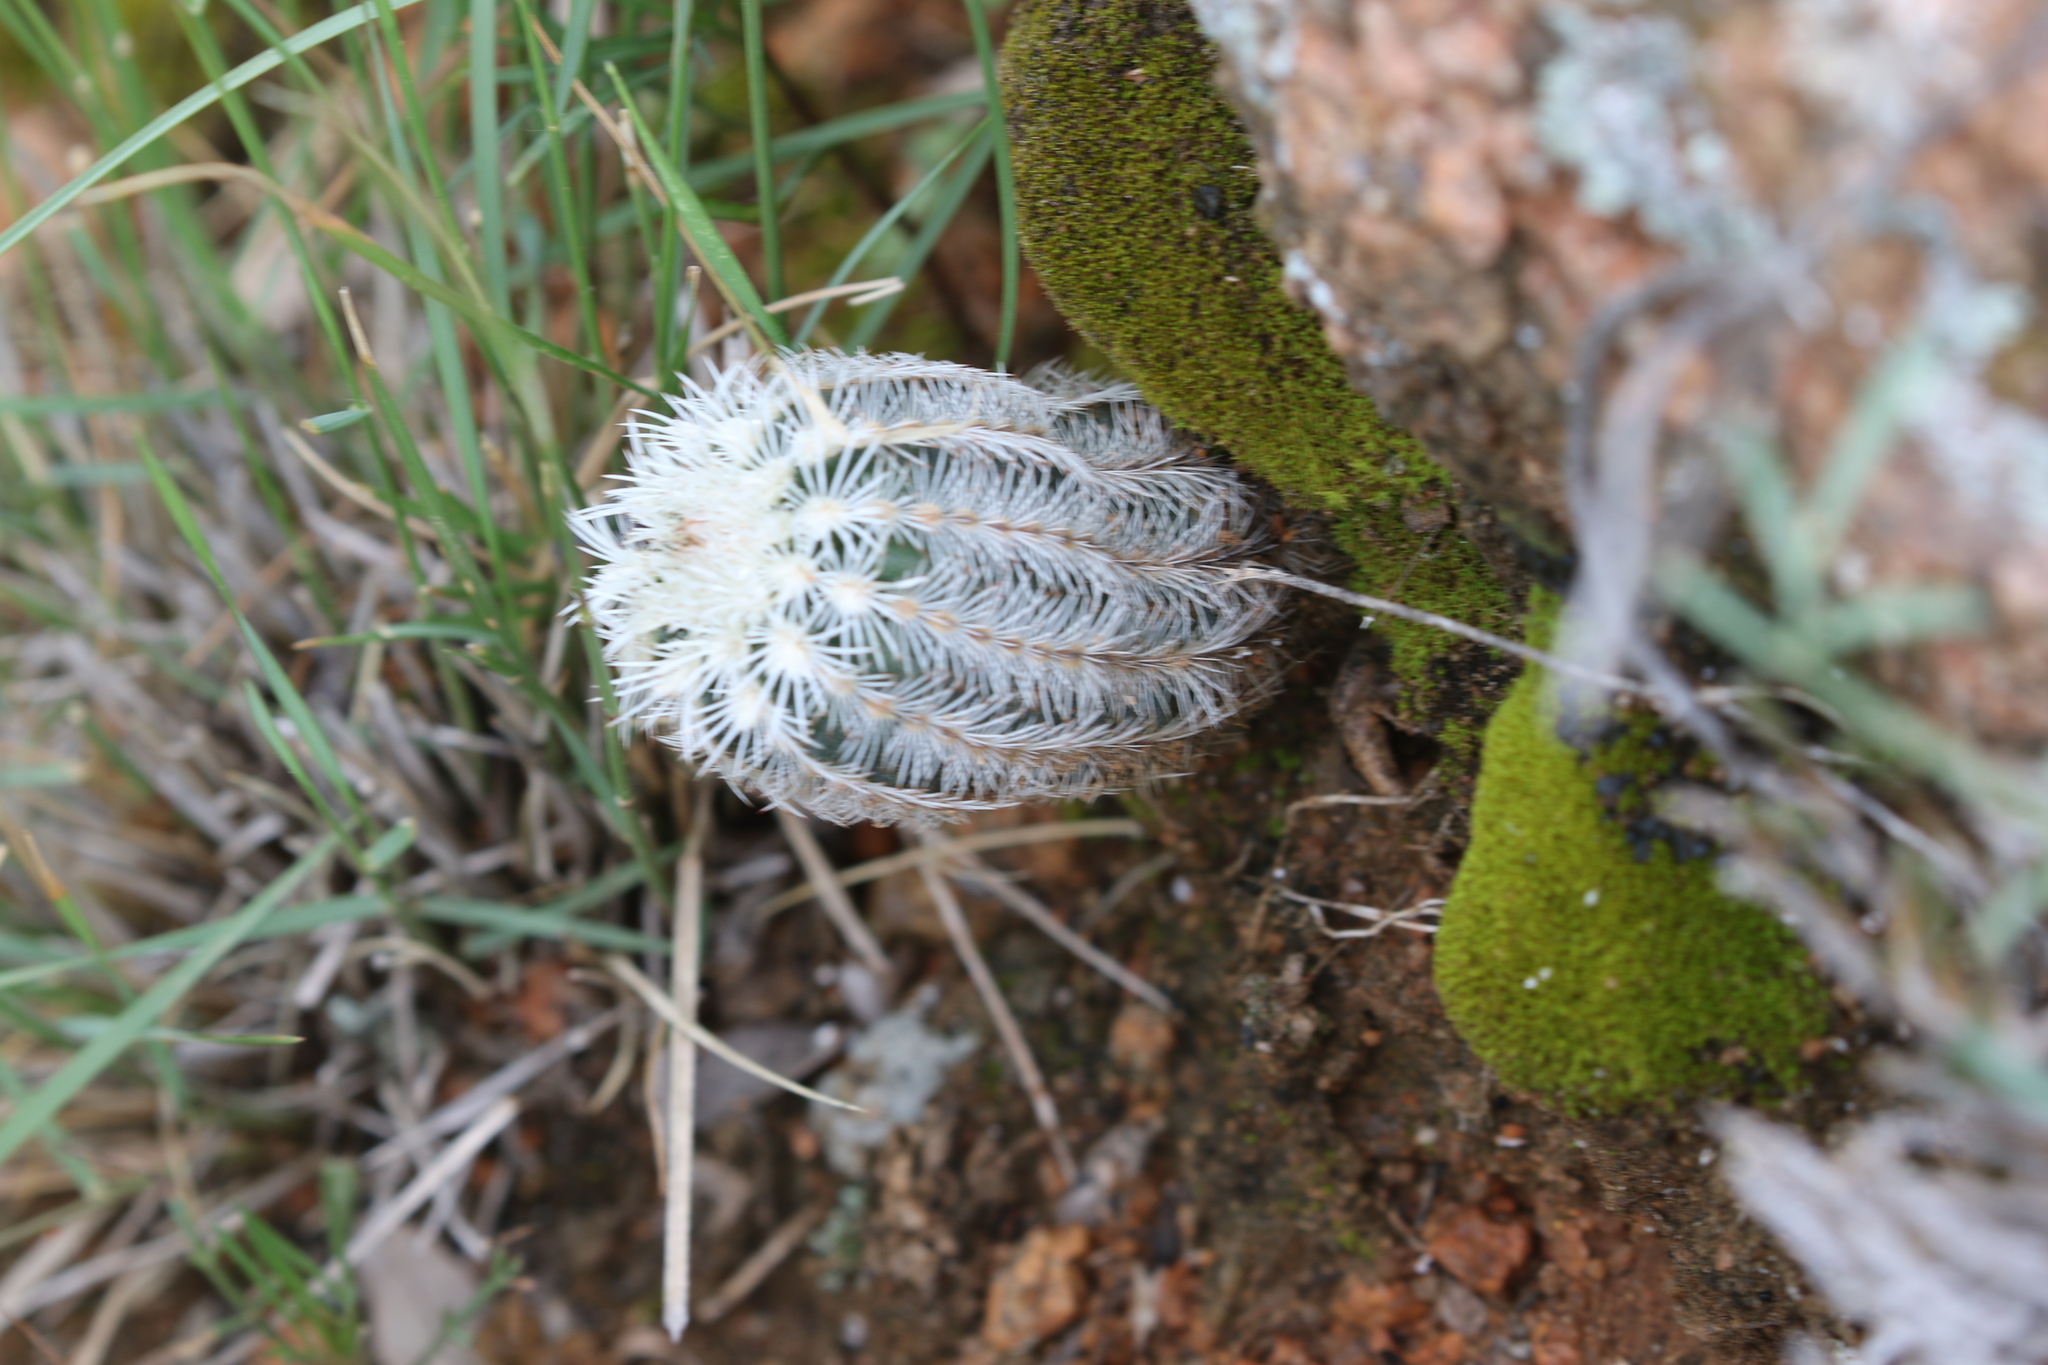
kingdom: Plantae
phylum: Tracheophyta
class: Magnoliopsida
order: Caryophyllales
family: Cactaceae
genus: Echinocereus
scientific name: Echinocereus reichenbachii
